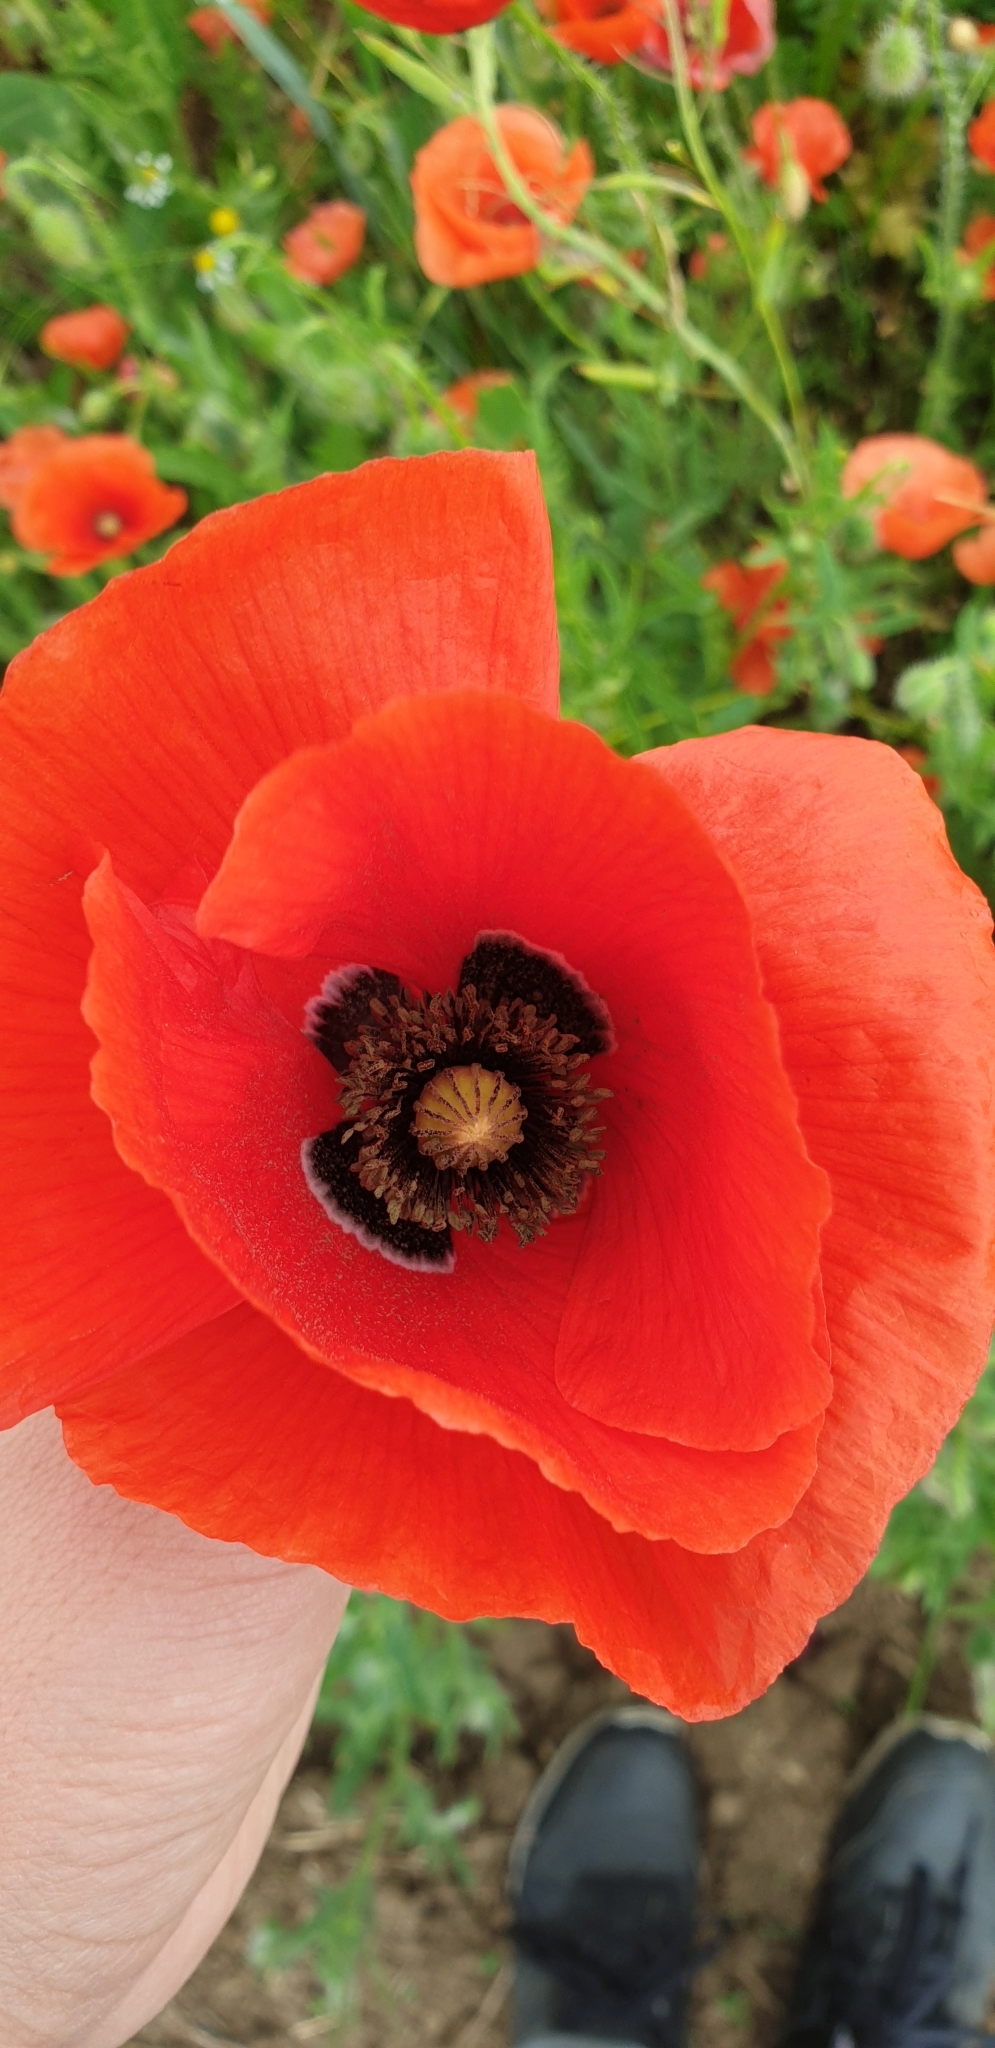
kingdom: Plantae
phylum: Tracheophyta
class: Magnoliopsida
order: Ranunculales
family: Papaveraceae
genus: Papaver
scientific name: Papaver rhoeas
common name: Corn poppy
